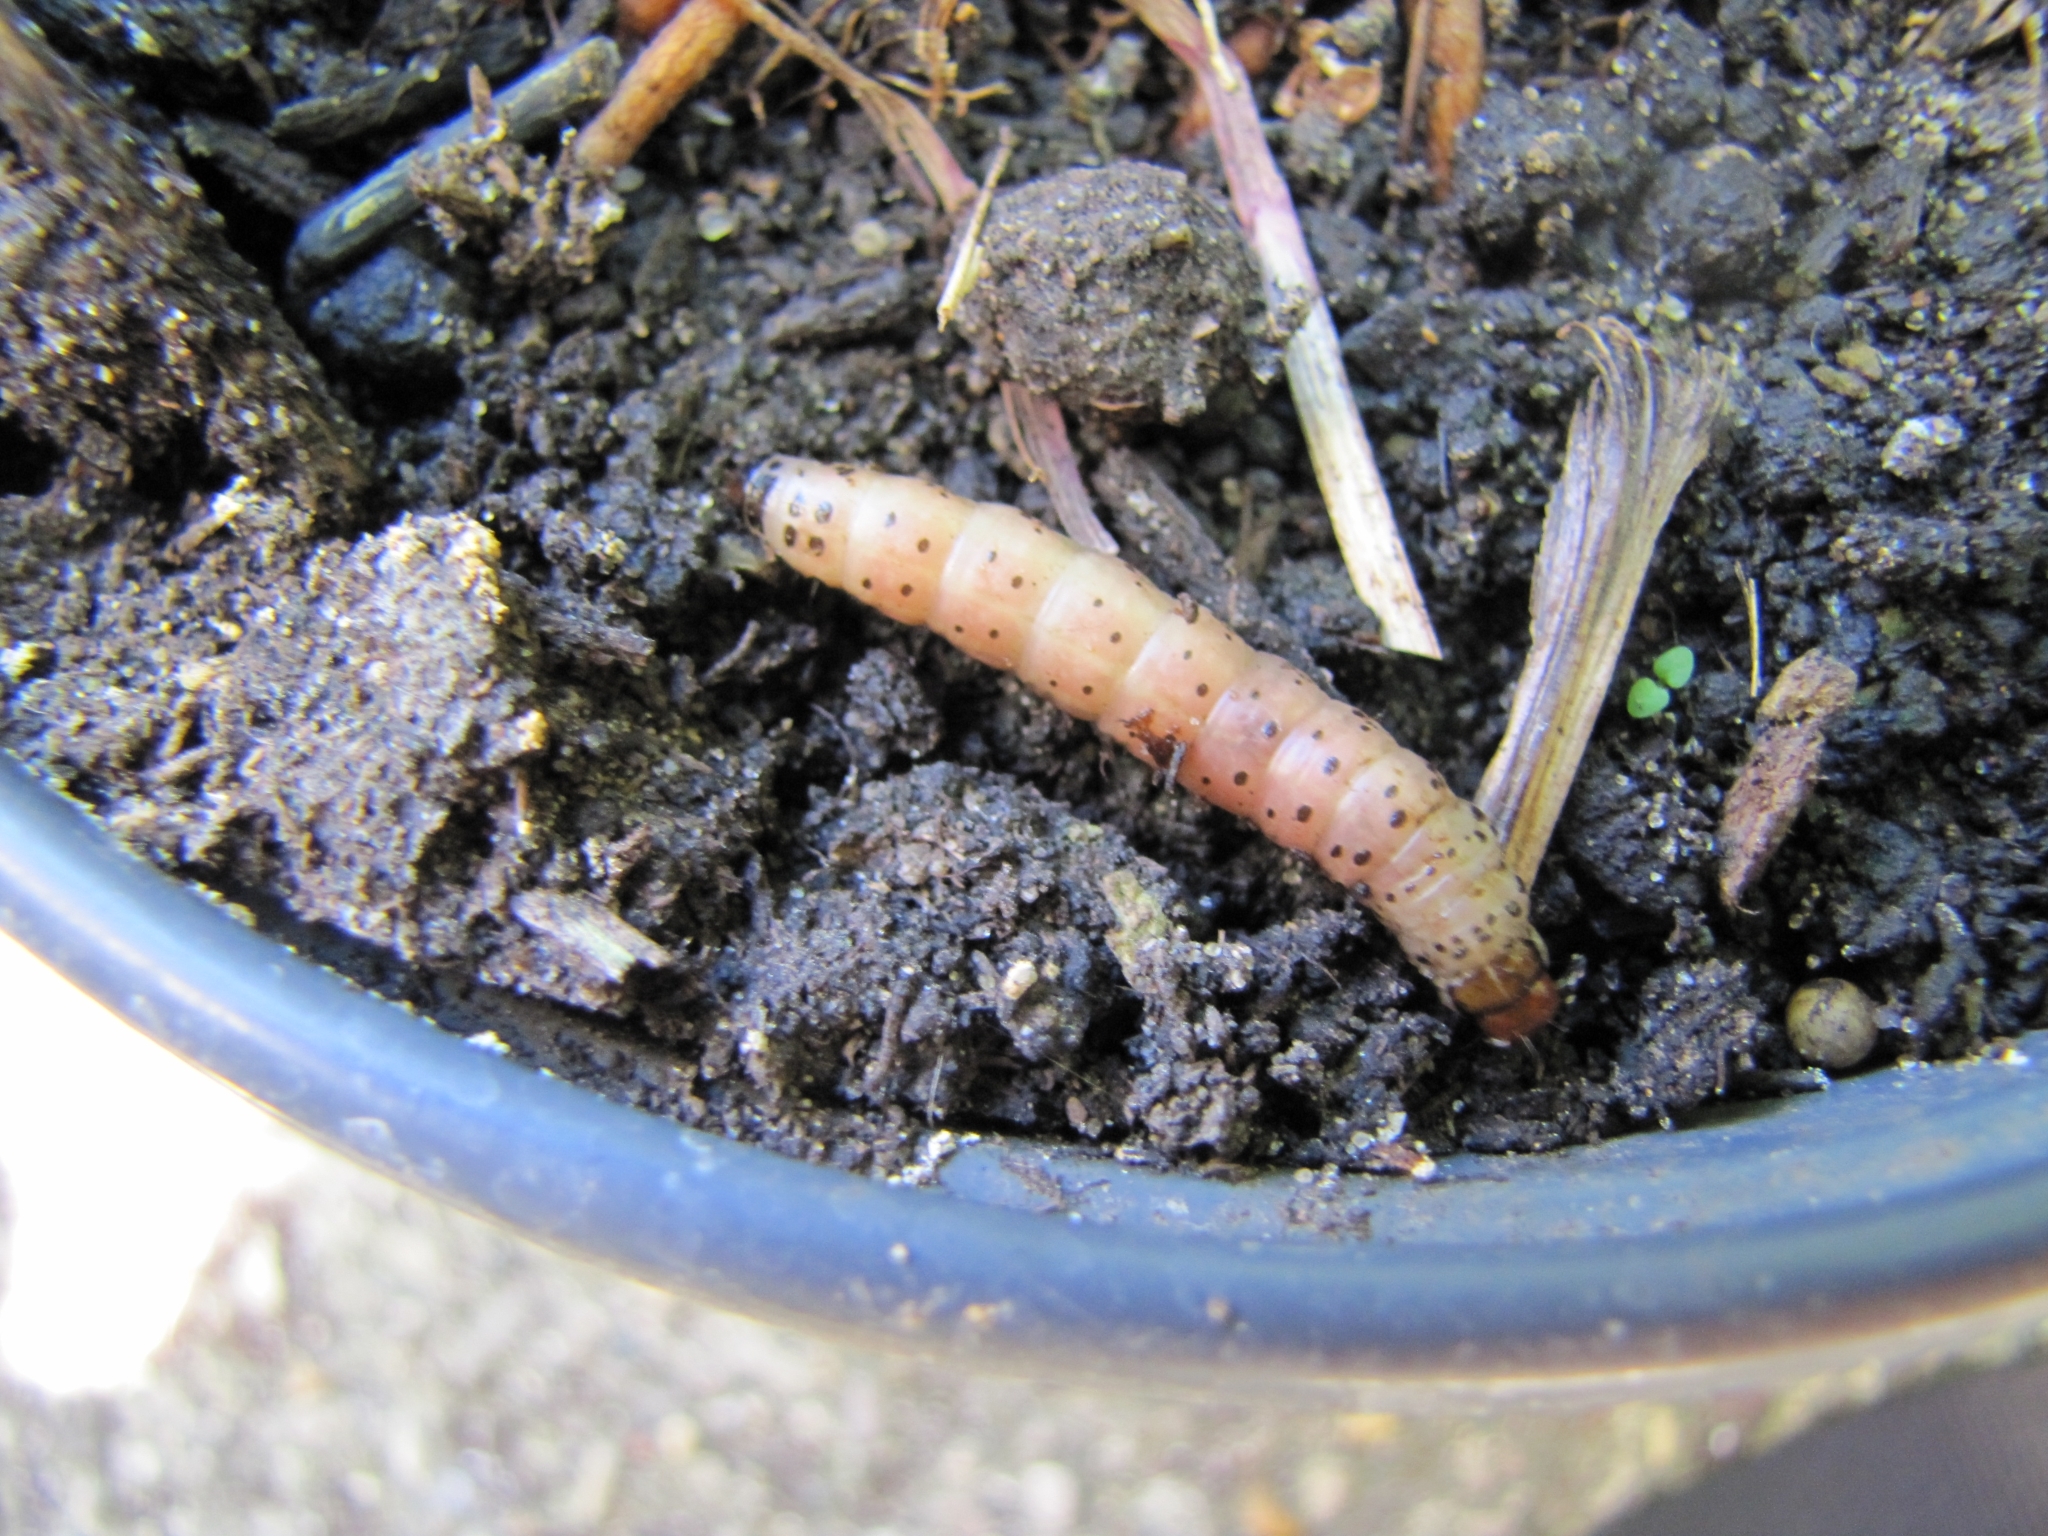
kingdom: Animalia
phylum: Arthropoda
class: Insecta
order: Lepidoptera
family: Noctuidae
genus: Papaipema
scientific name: Papaipema leucostigma
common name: Columbine borer moth
